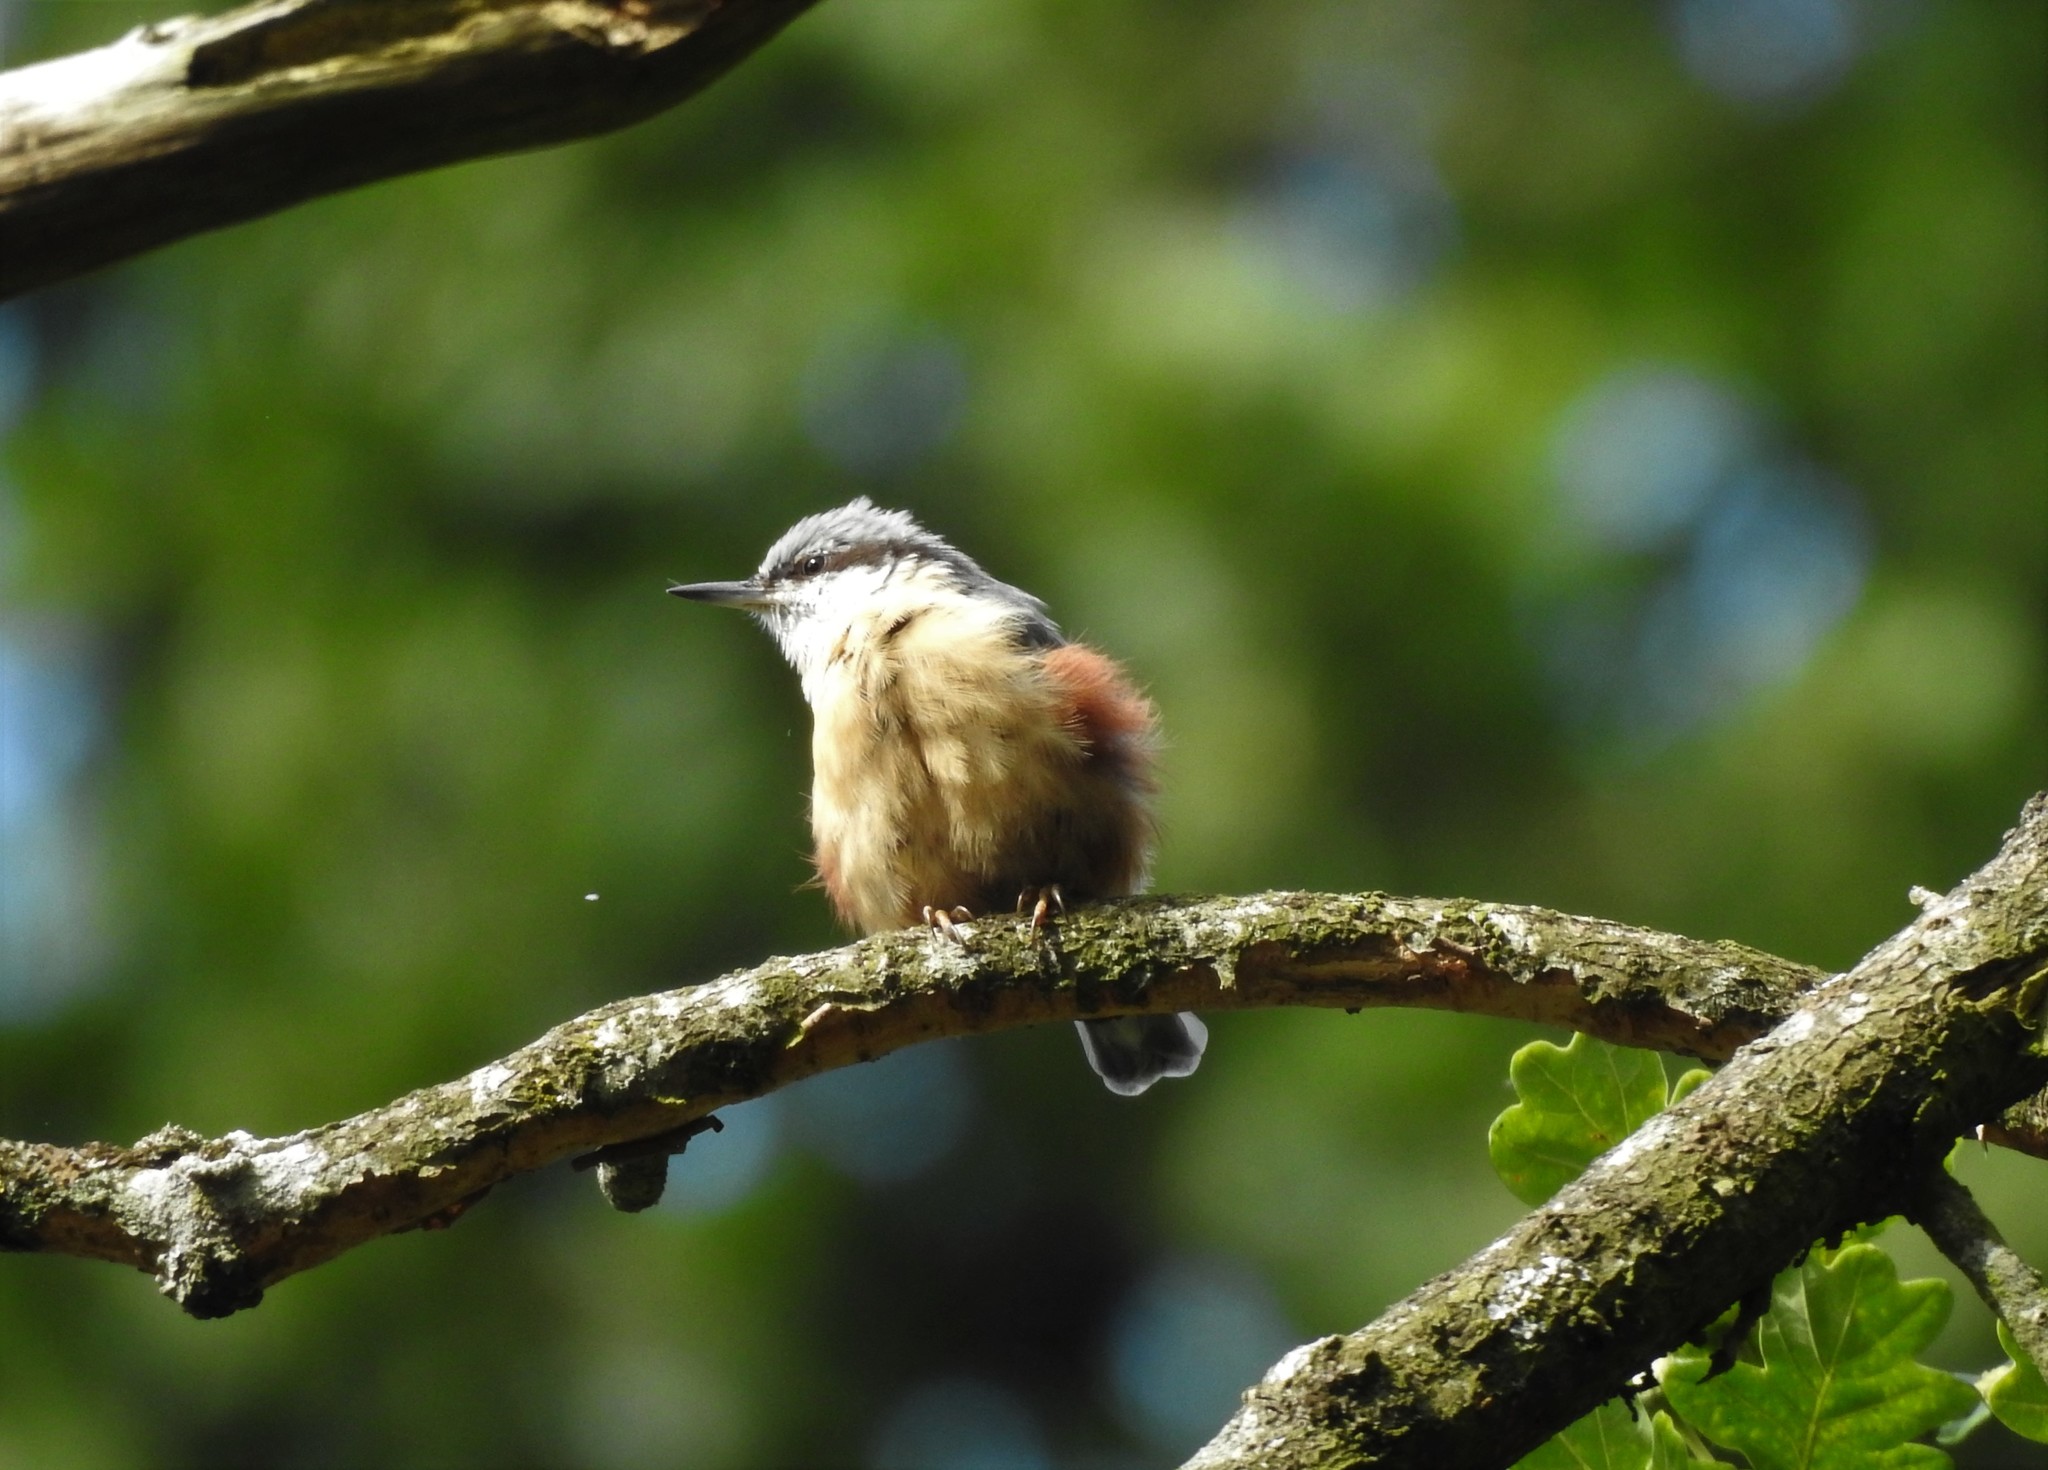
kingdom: Animalia
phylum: Chordata
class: Aves
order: Passeriformes
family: Sittidae
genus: Sitta
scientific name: Sitta europaea
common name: Eurasian nuthatch
